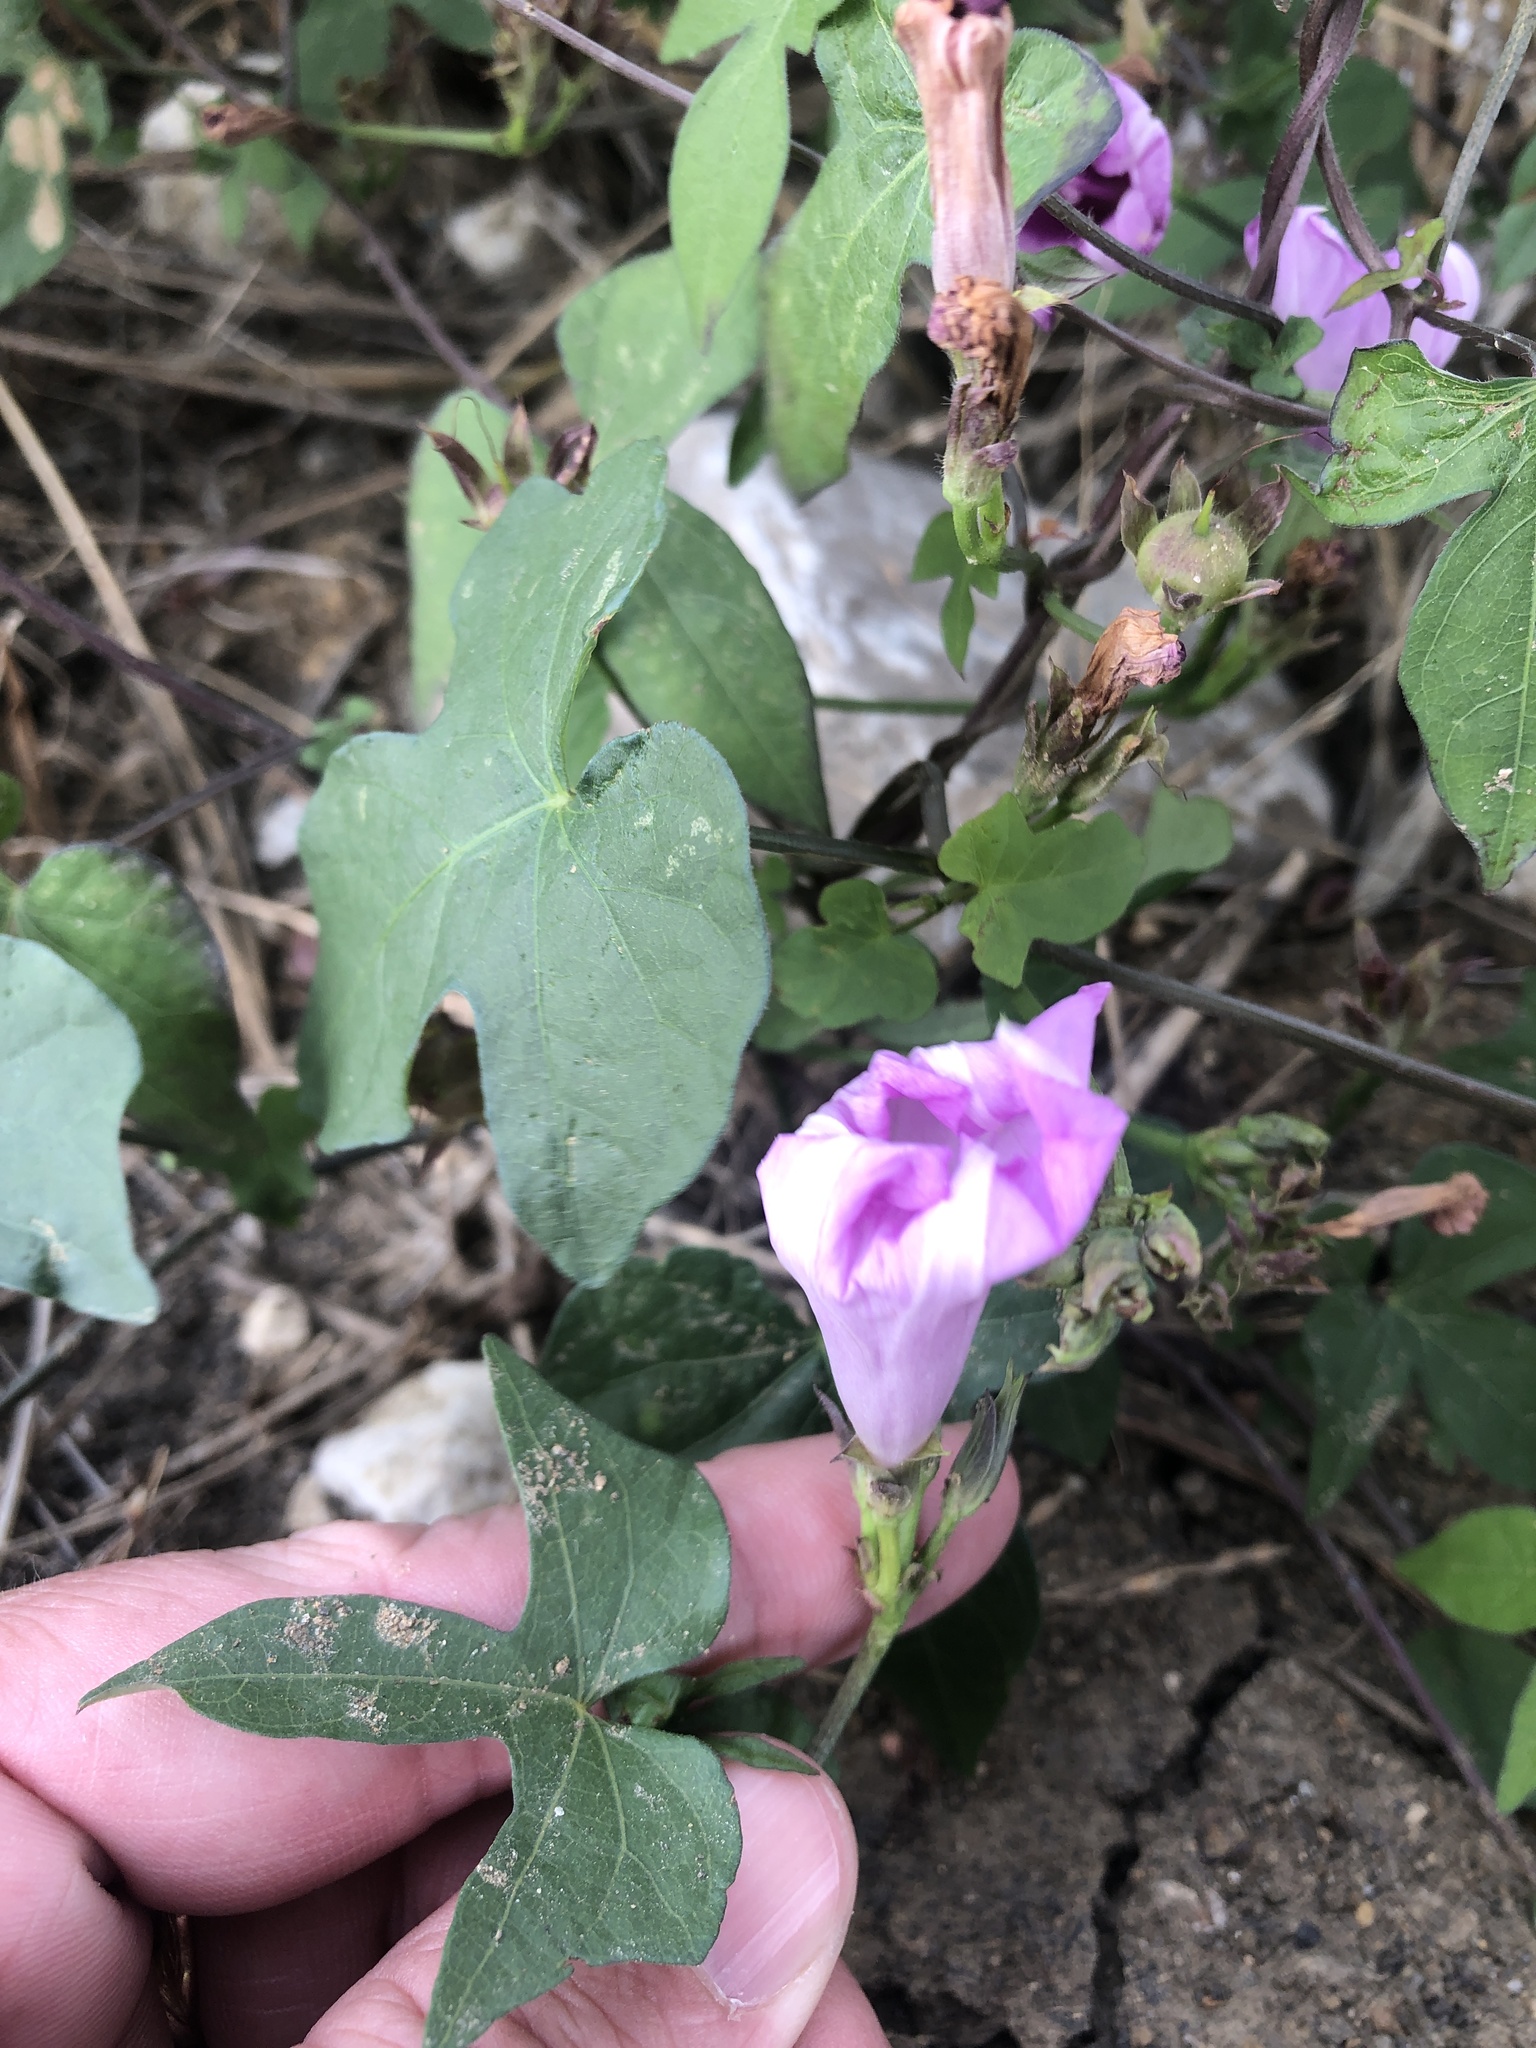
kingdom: Plantae
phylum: Tracheophyta
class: Magnoliopsida
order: Solanales
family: Convolvulaceae
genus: Ipomoea
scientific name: Ipomoea cordatotriloba
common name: Cotton morning glory
